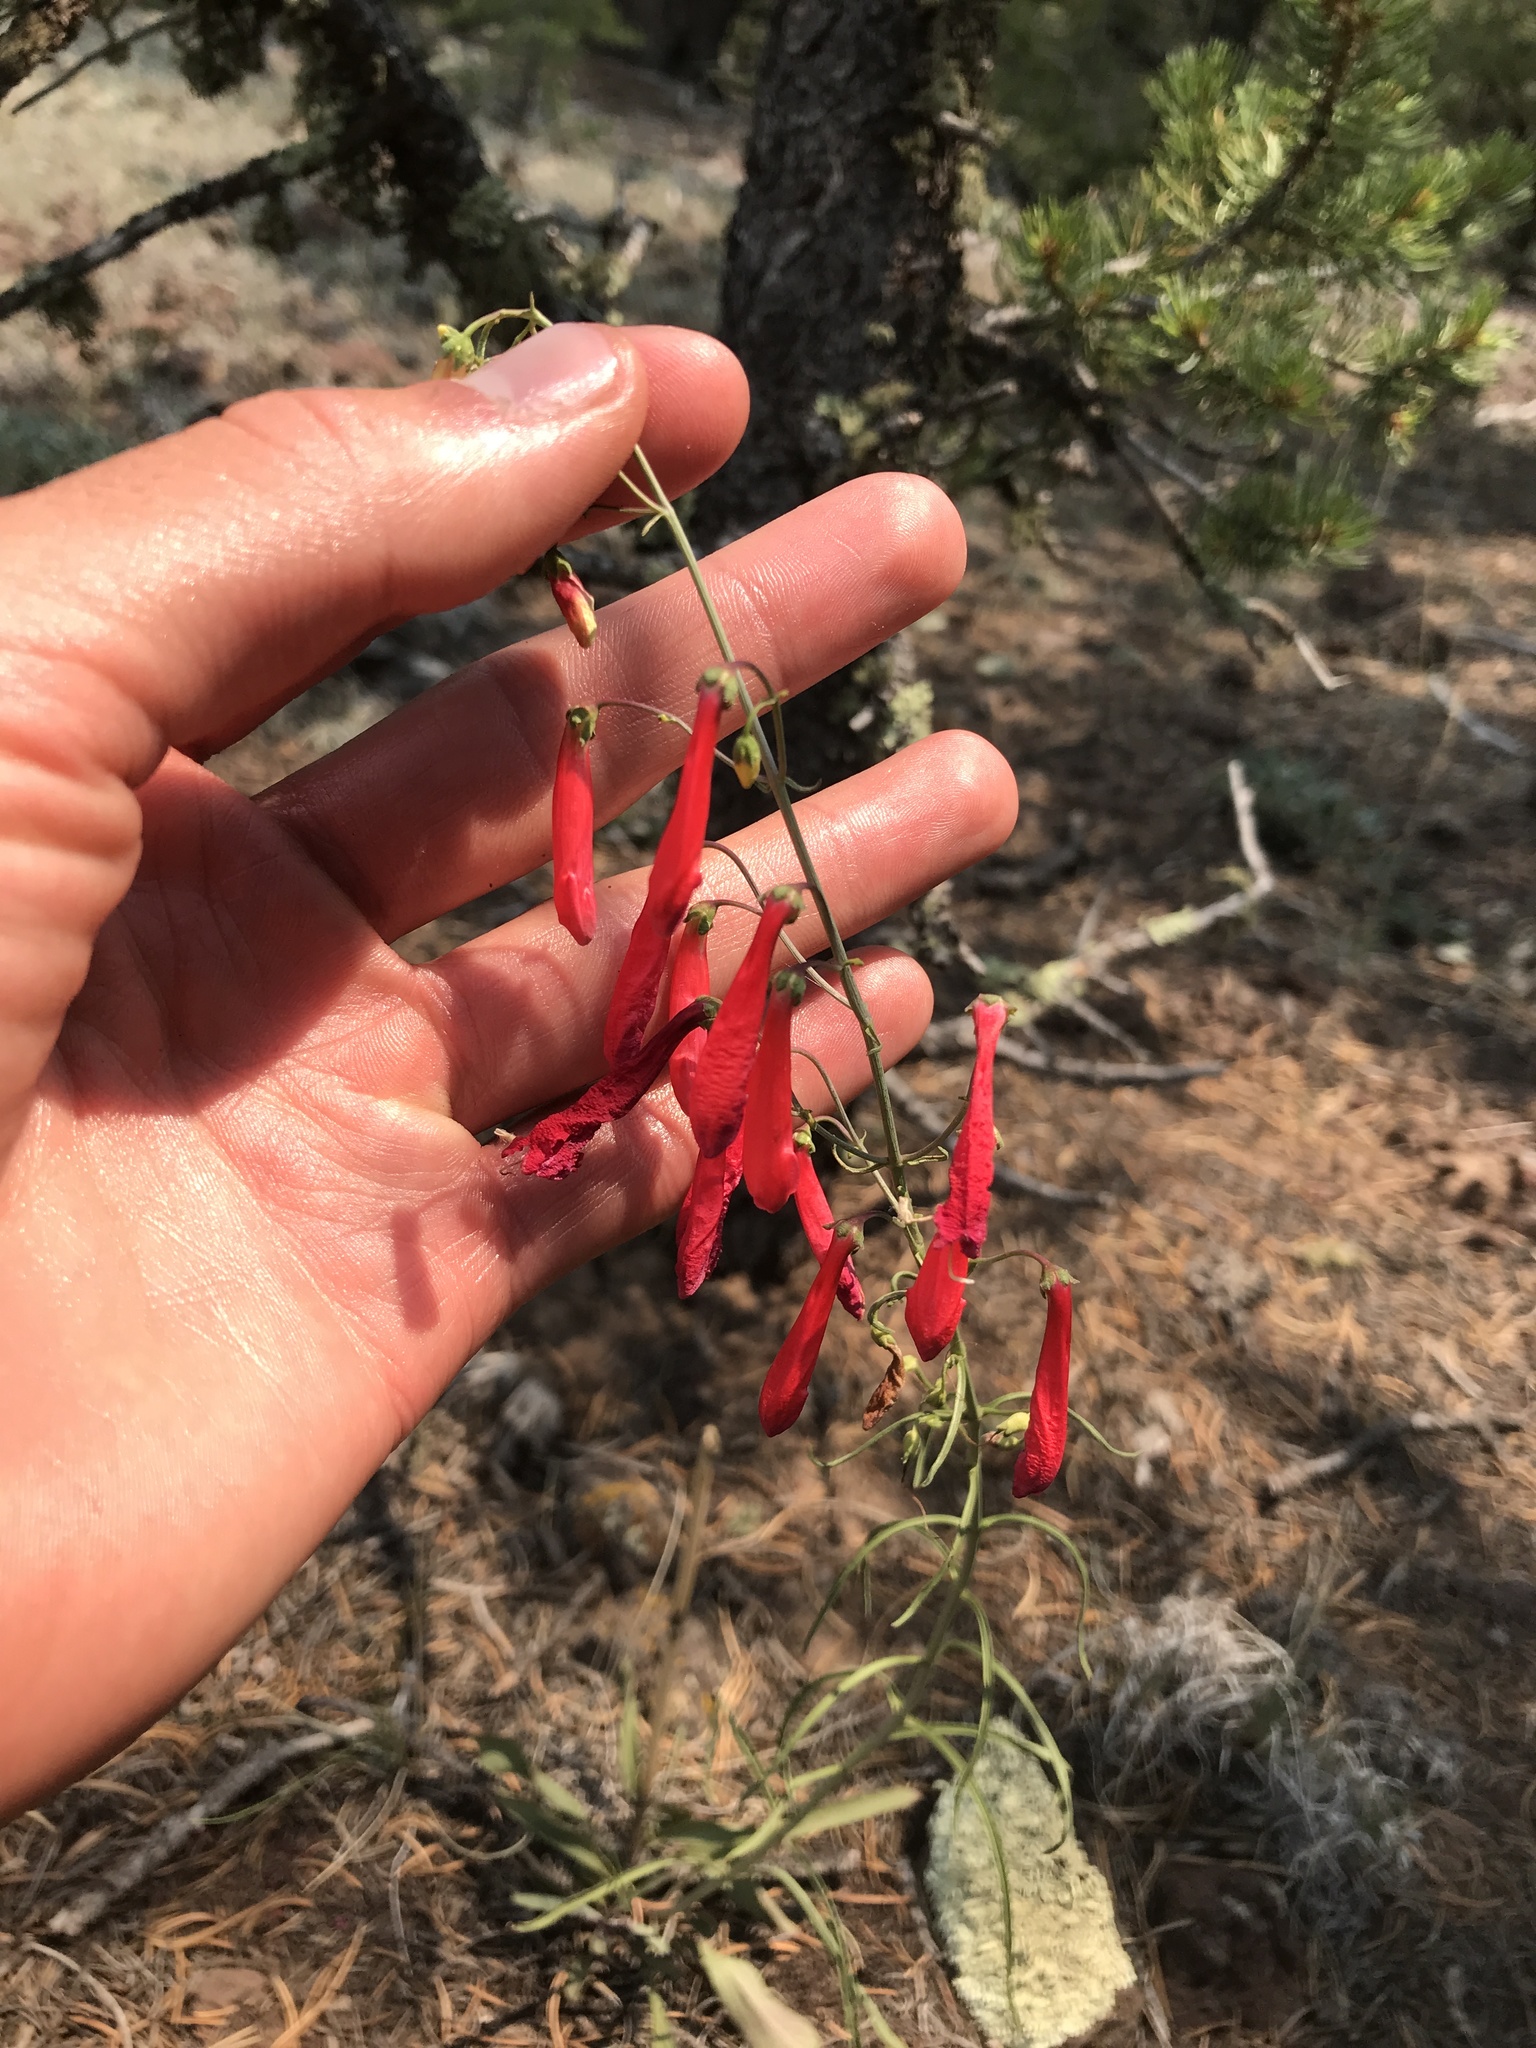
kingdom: Plantae
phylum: Tracheophyta
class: Magnoliopsida
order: Lamiales
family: Plantaginaceae
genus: Penstemon
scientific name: Penstemon barbatus
